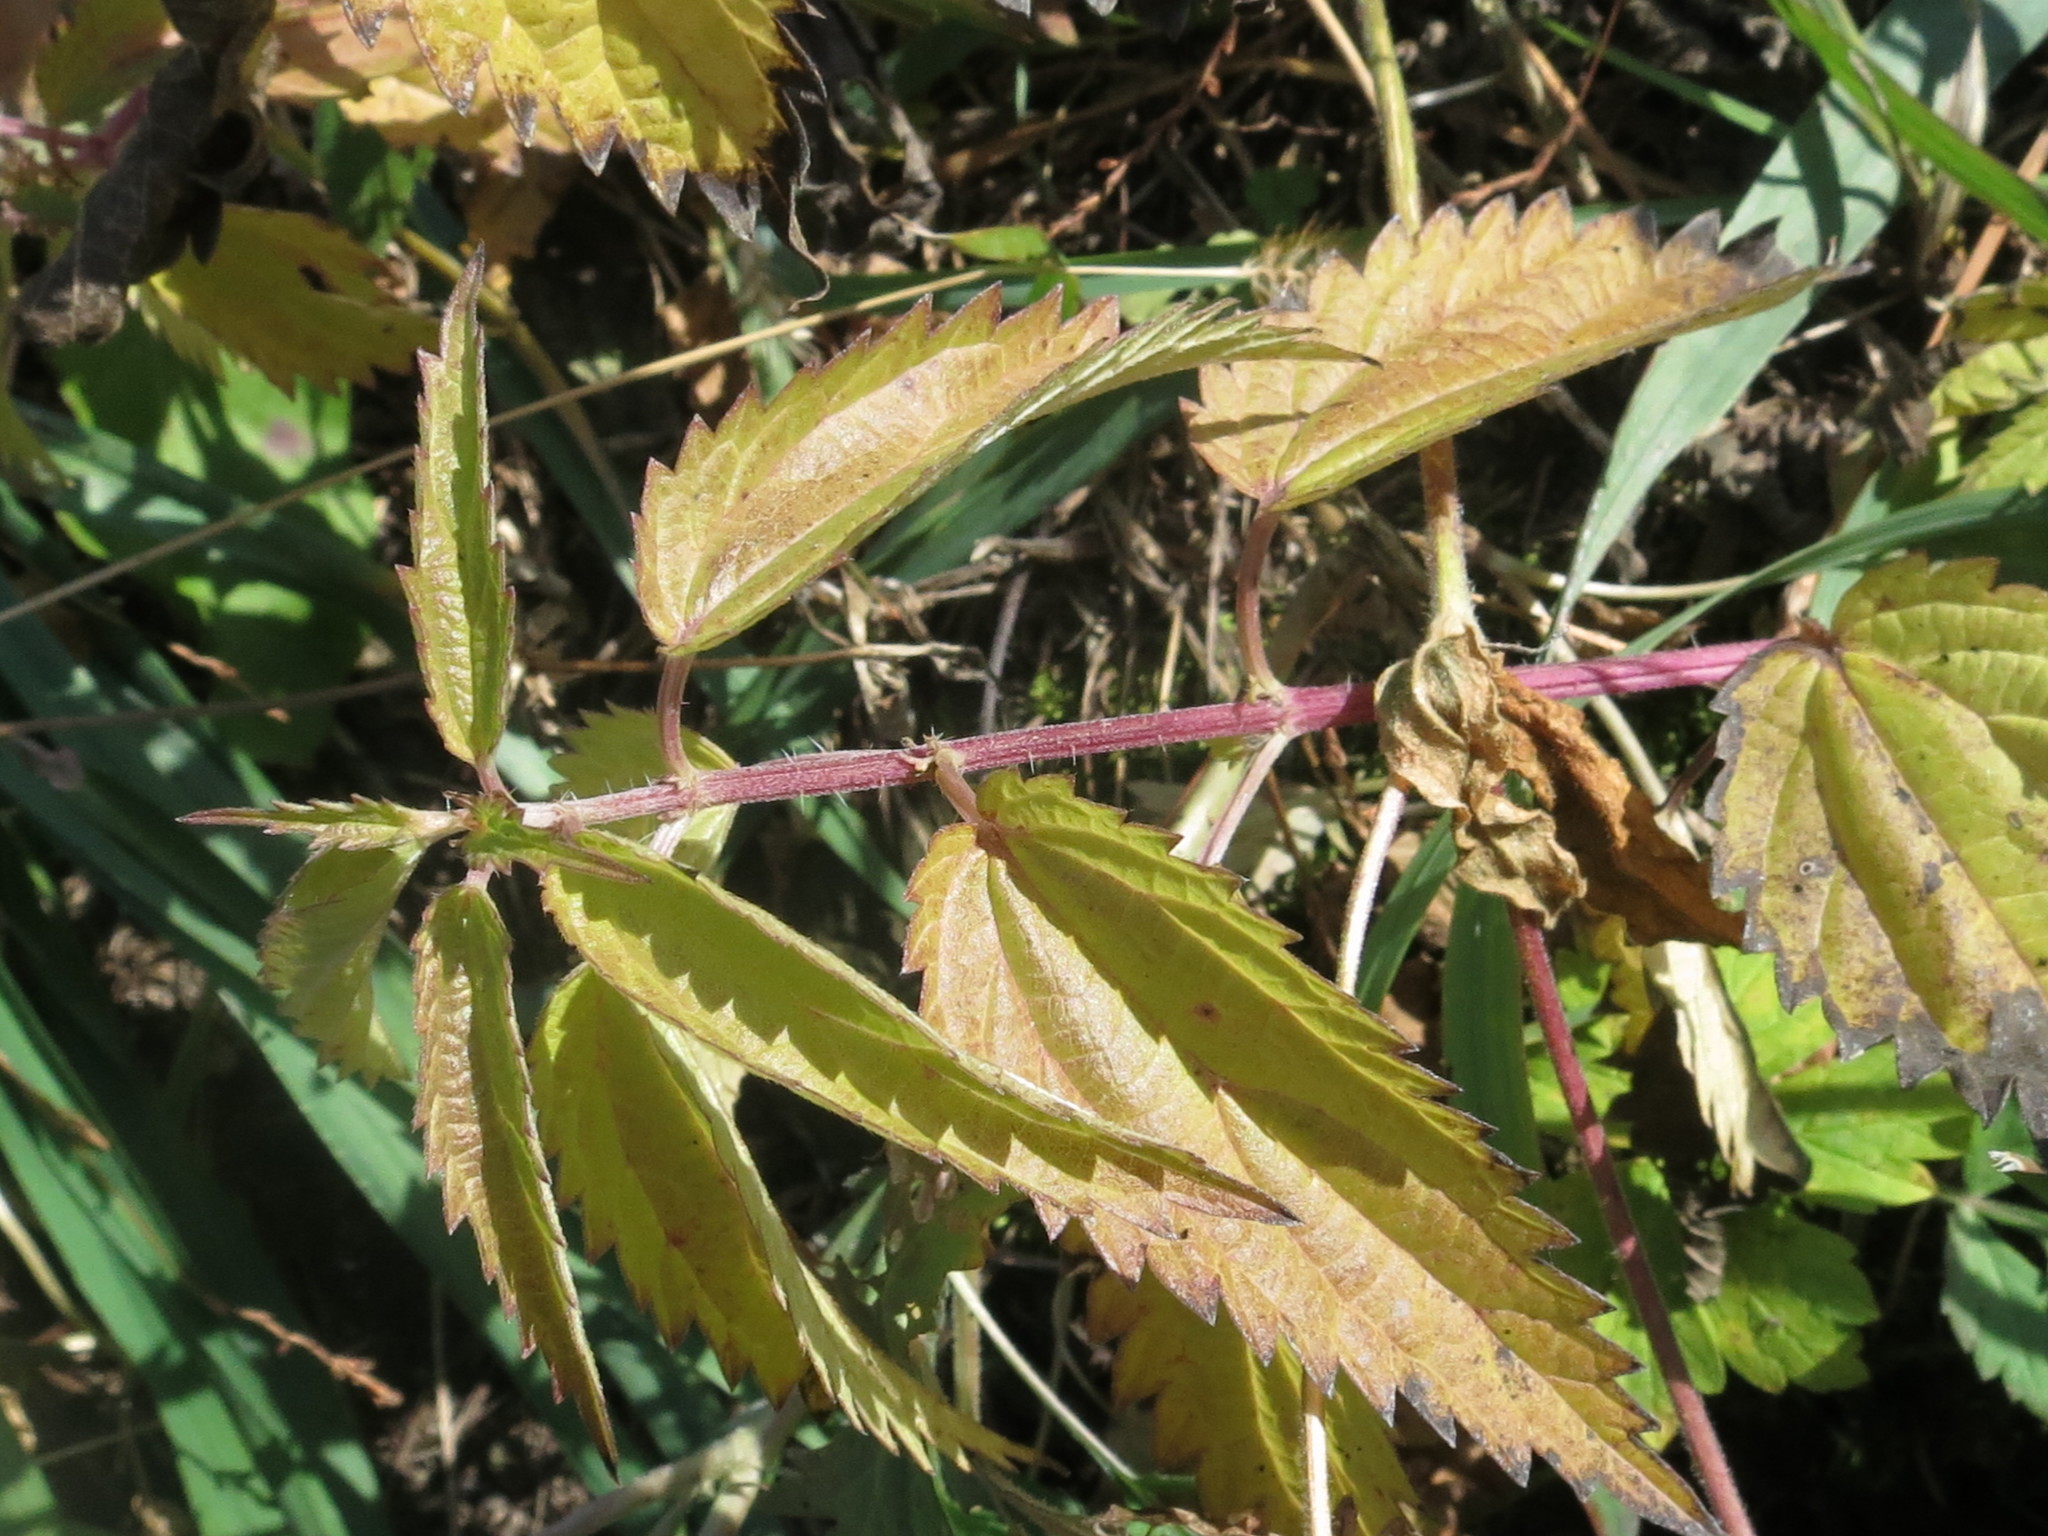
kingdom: Plantae
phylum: Tracheophyta
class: Magnoliopsida
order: Rosales
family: Urticaceae
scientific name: Urticaceae
